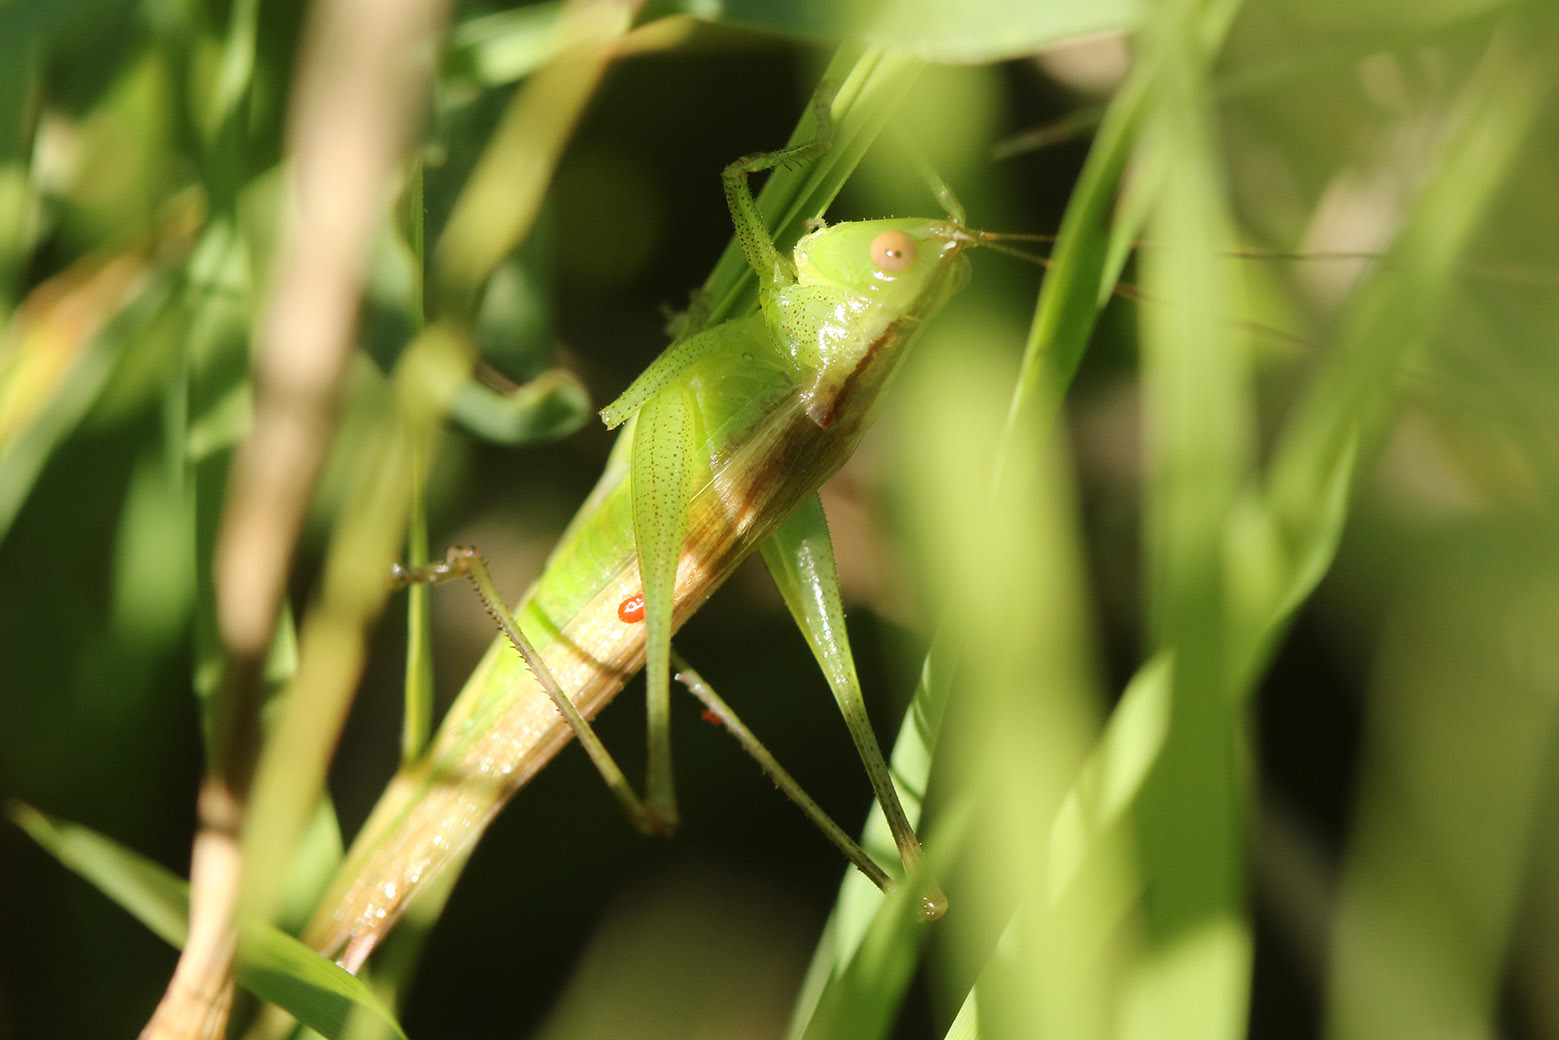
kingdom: Animalia
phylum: Arthropoda
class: Insecta
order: Orthoptera
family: Tettigoniidae
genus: Conocephalus
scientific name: Conocephalus longipes
